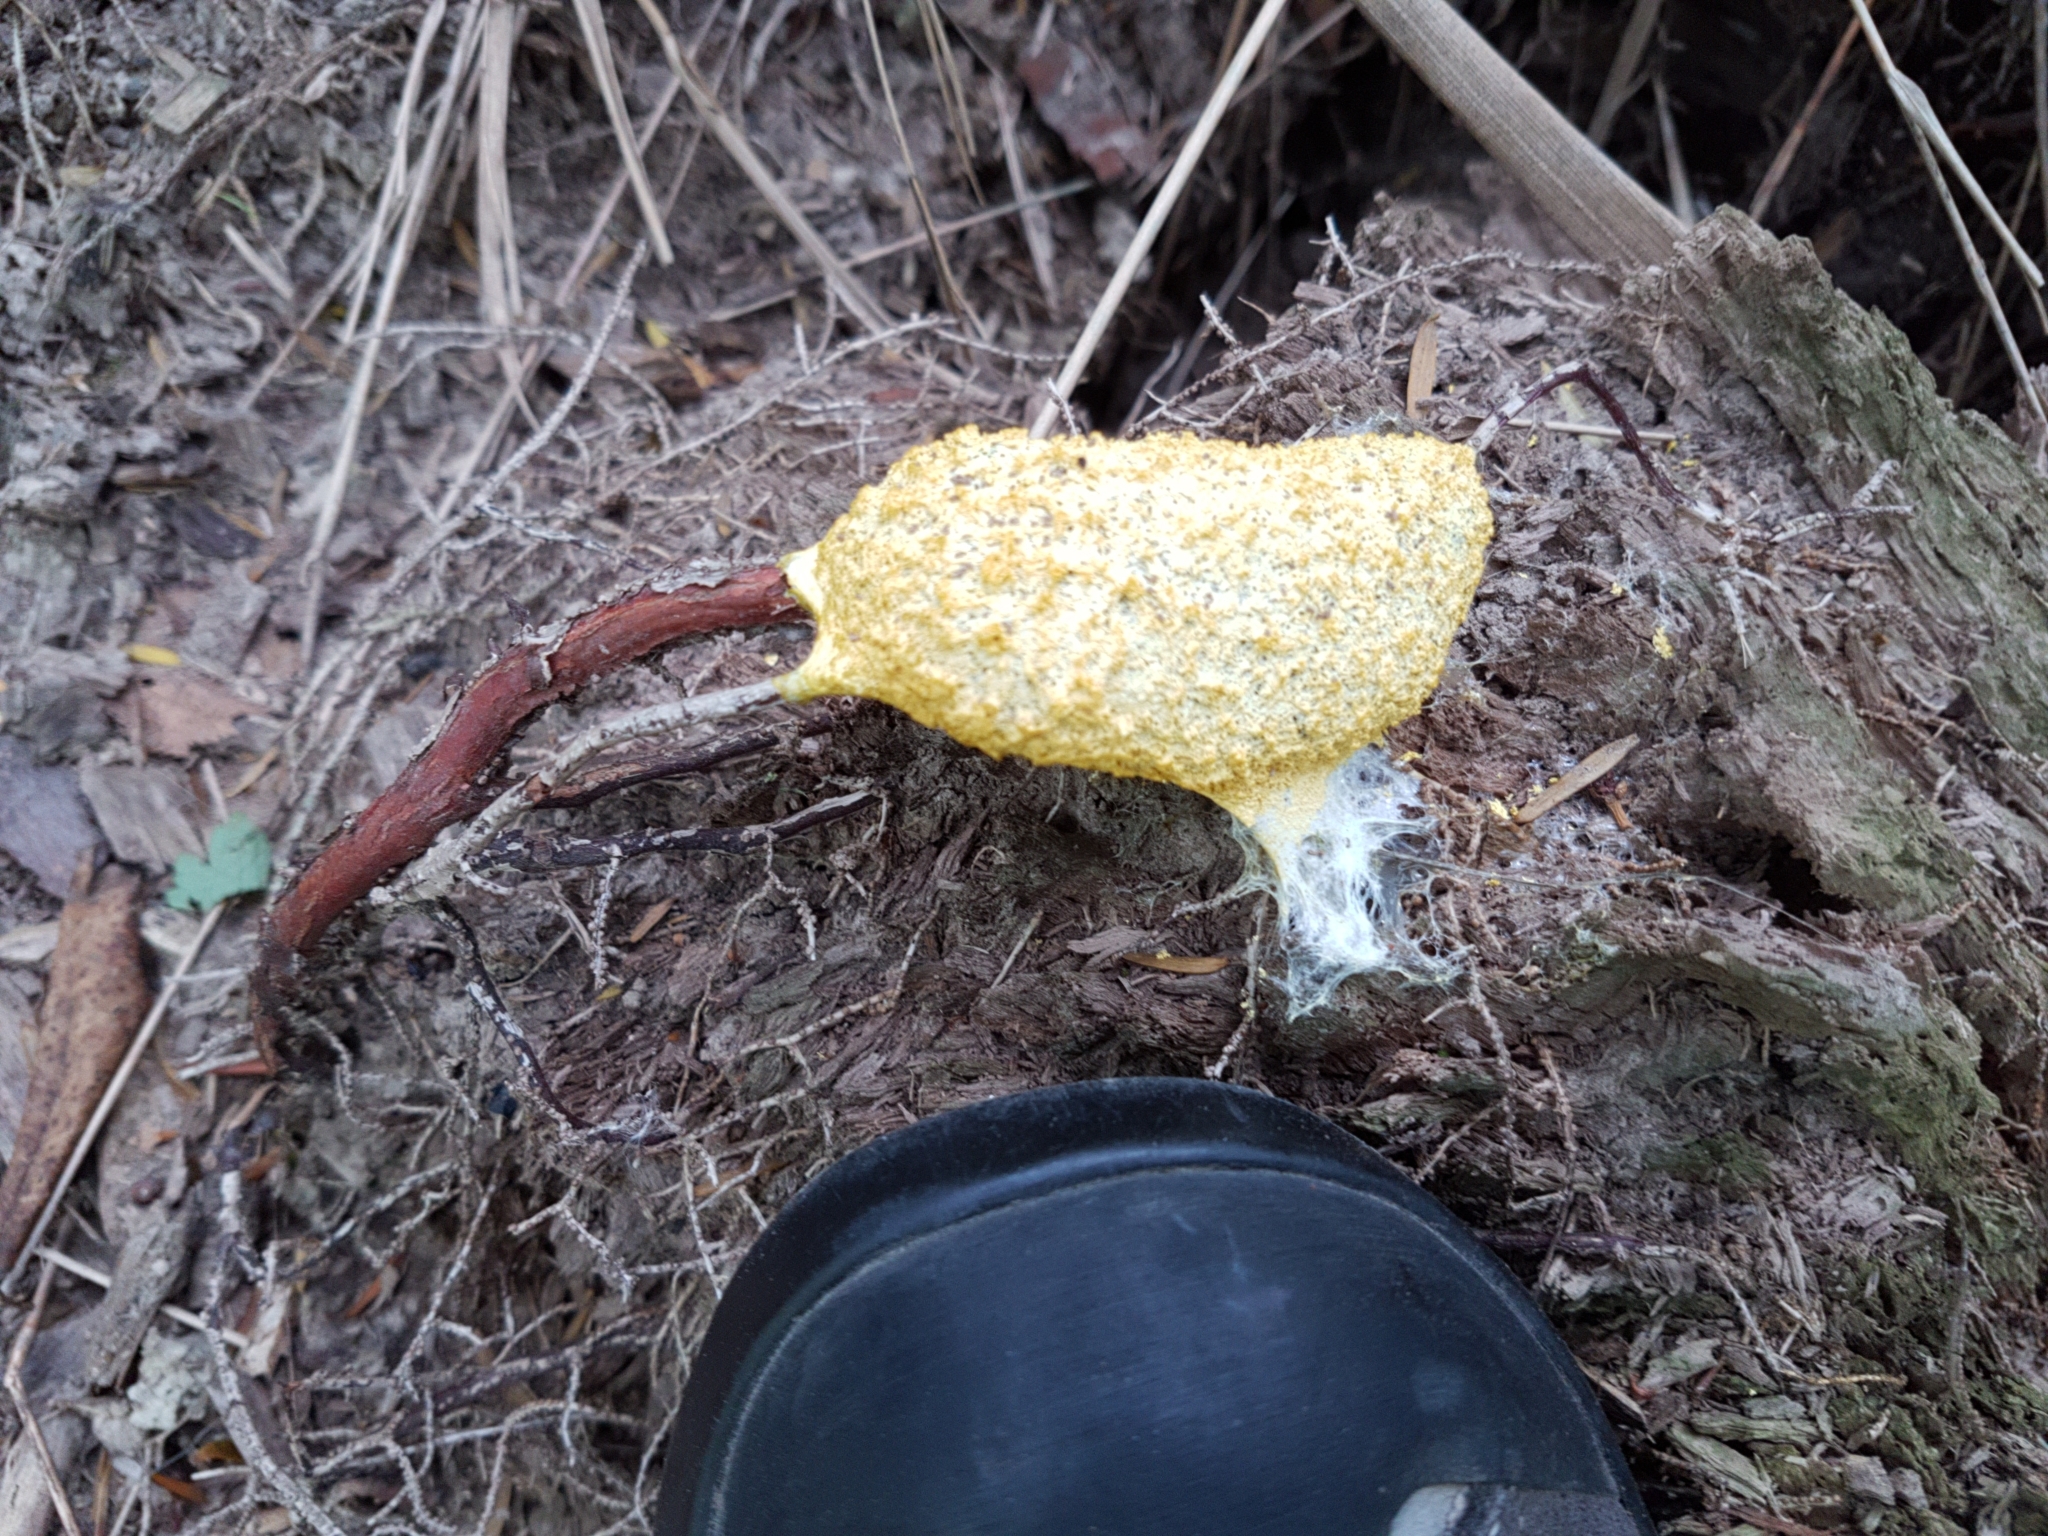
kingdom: Protozoa
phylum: Mycetozoa
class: Myxomycetes
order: Physarales
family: Physaraceae
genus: Fuligo
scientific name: Fuligo septica
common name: Dog vomit slime mold
